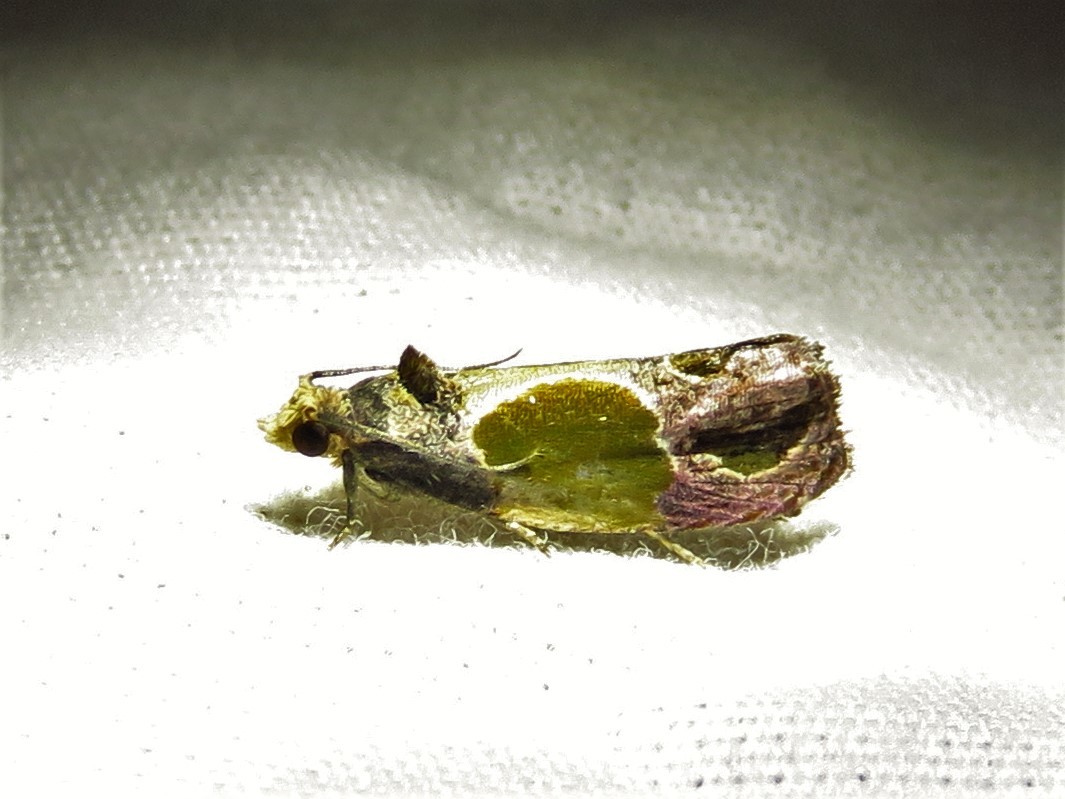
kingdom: Animalia
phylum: Arthropoda
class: Insecta
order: Lepidoptera
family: Tortricidae
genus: Eumarozia
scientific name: Eumarozia malachitana
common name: Sculptured moth
